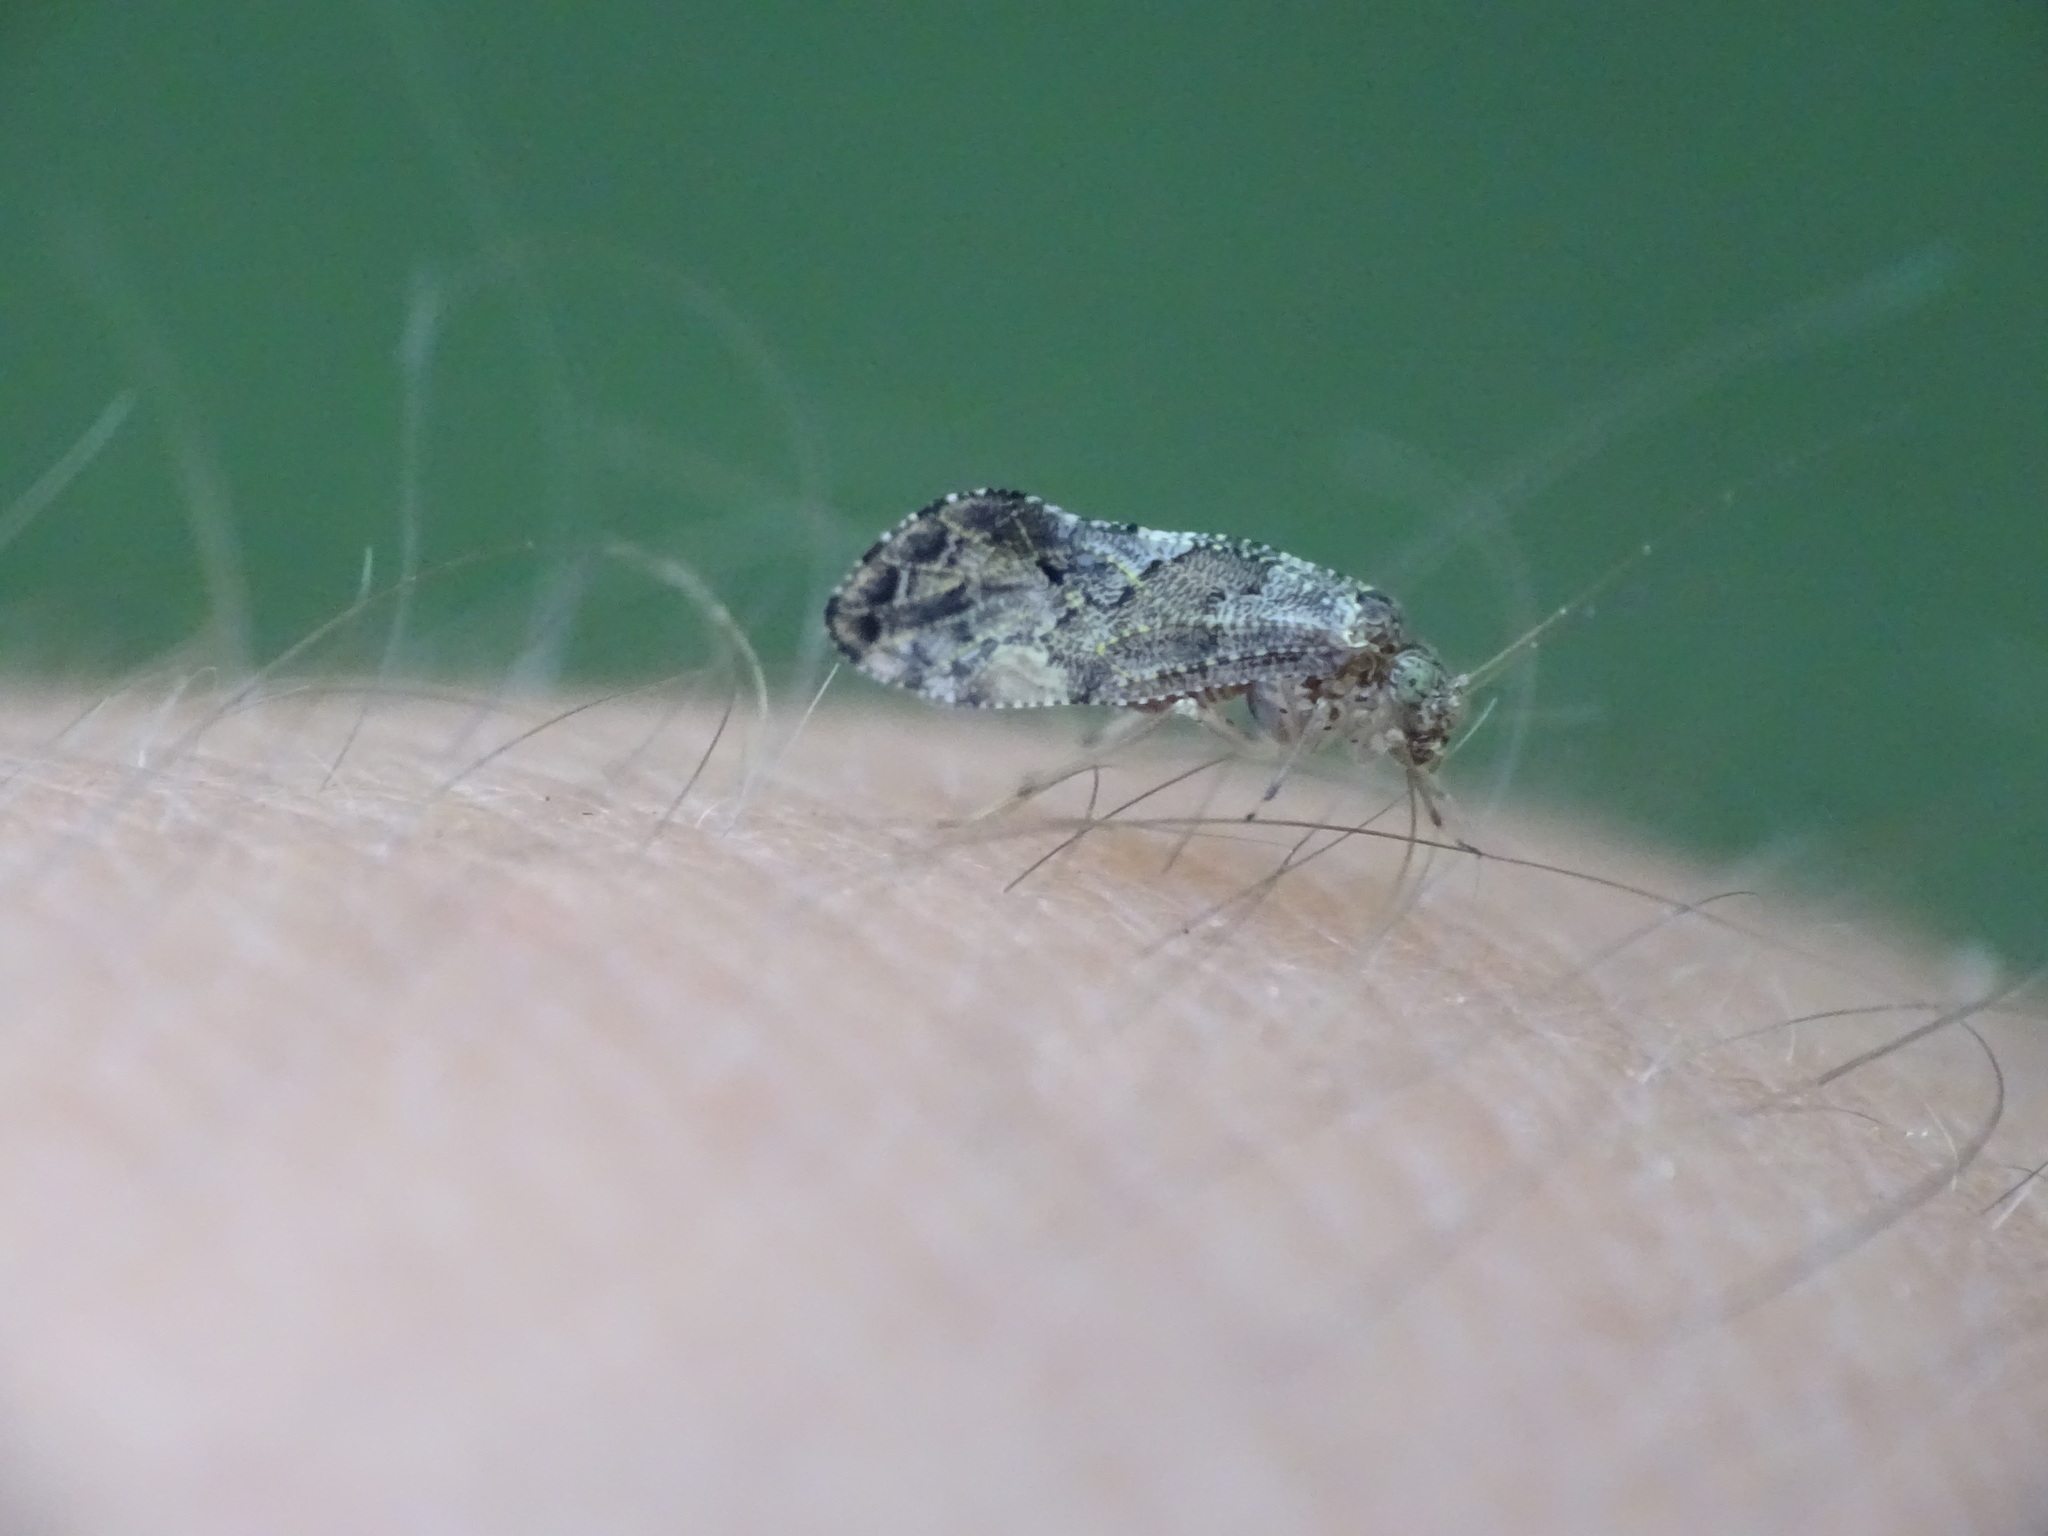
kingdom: Animalia
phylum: Arthropoda
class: Insecta
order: Psocodea
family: Myopsocidae
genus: Lichenomima
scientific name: Lichenomima sparsa
